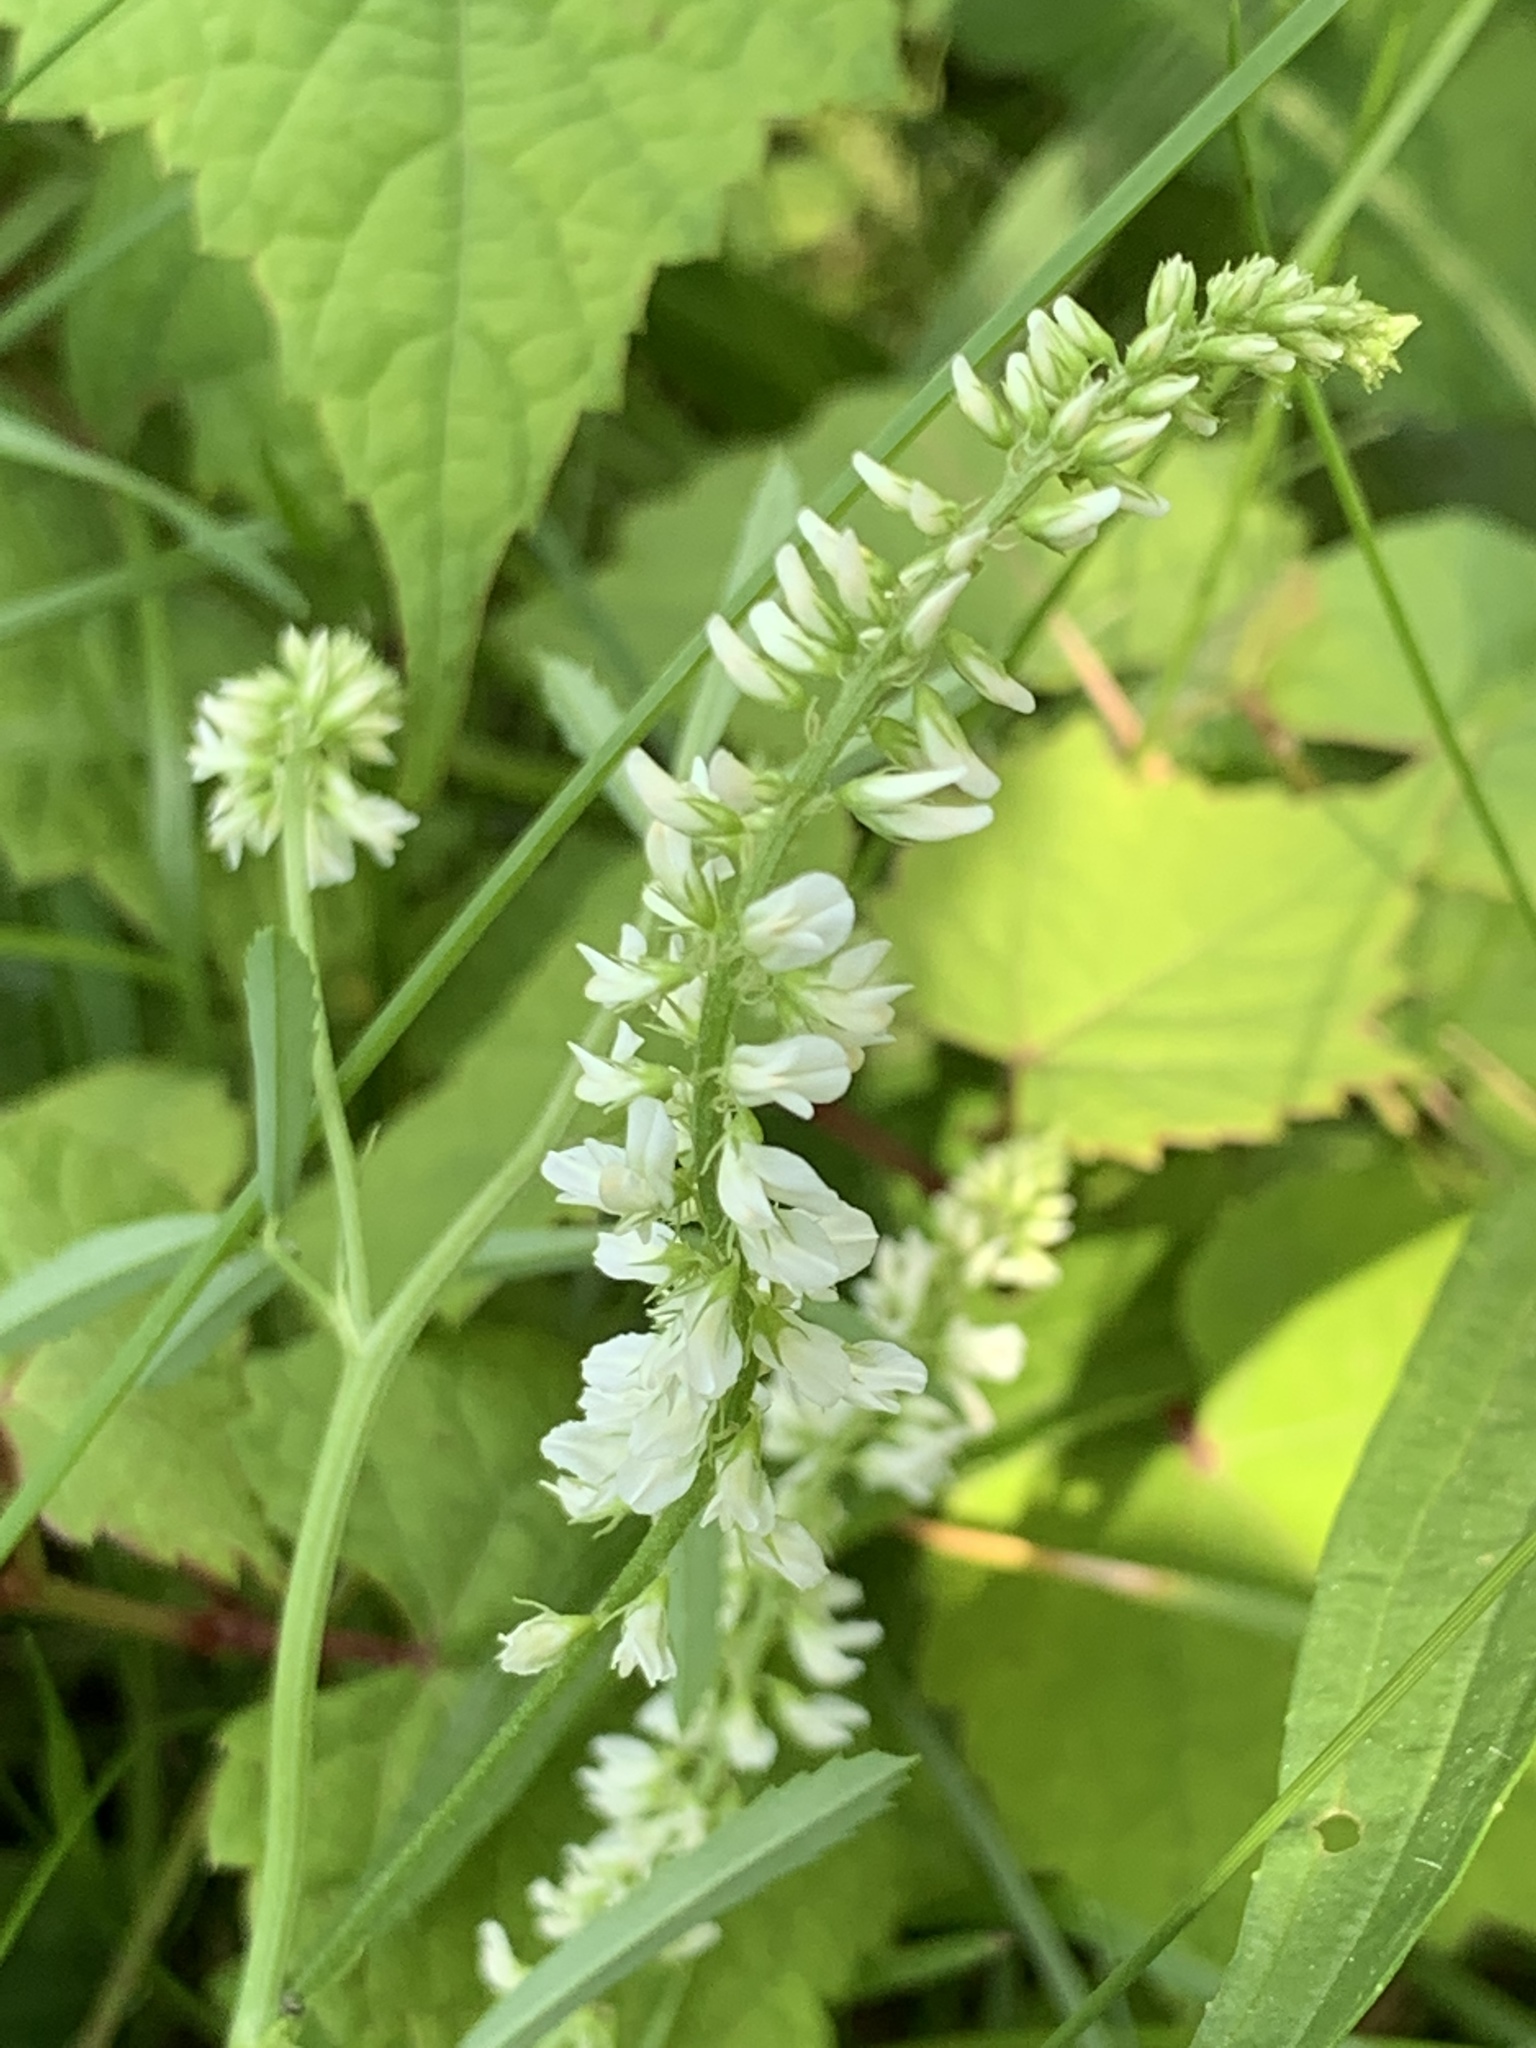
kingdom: Plantae
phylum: Tracheophyta
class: Magnoliopsida
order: Fabales
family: Fabaceae
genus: Melilotus
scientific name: Melilotus albus
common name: White melilot
